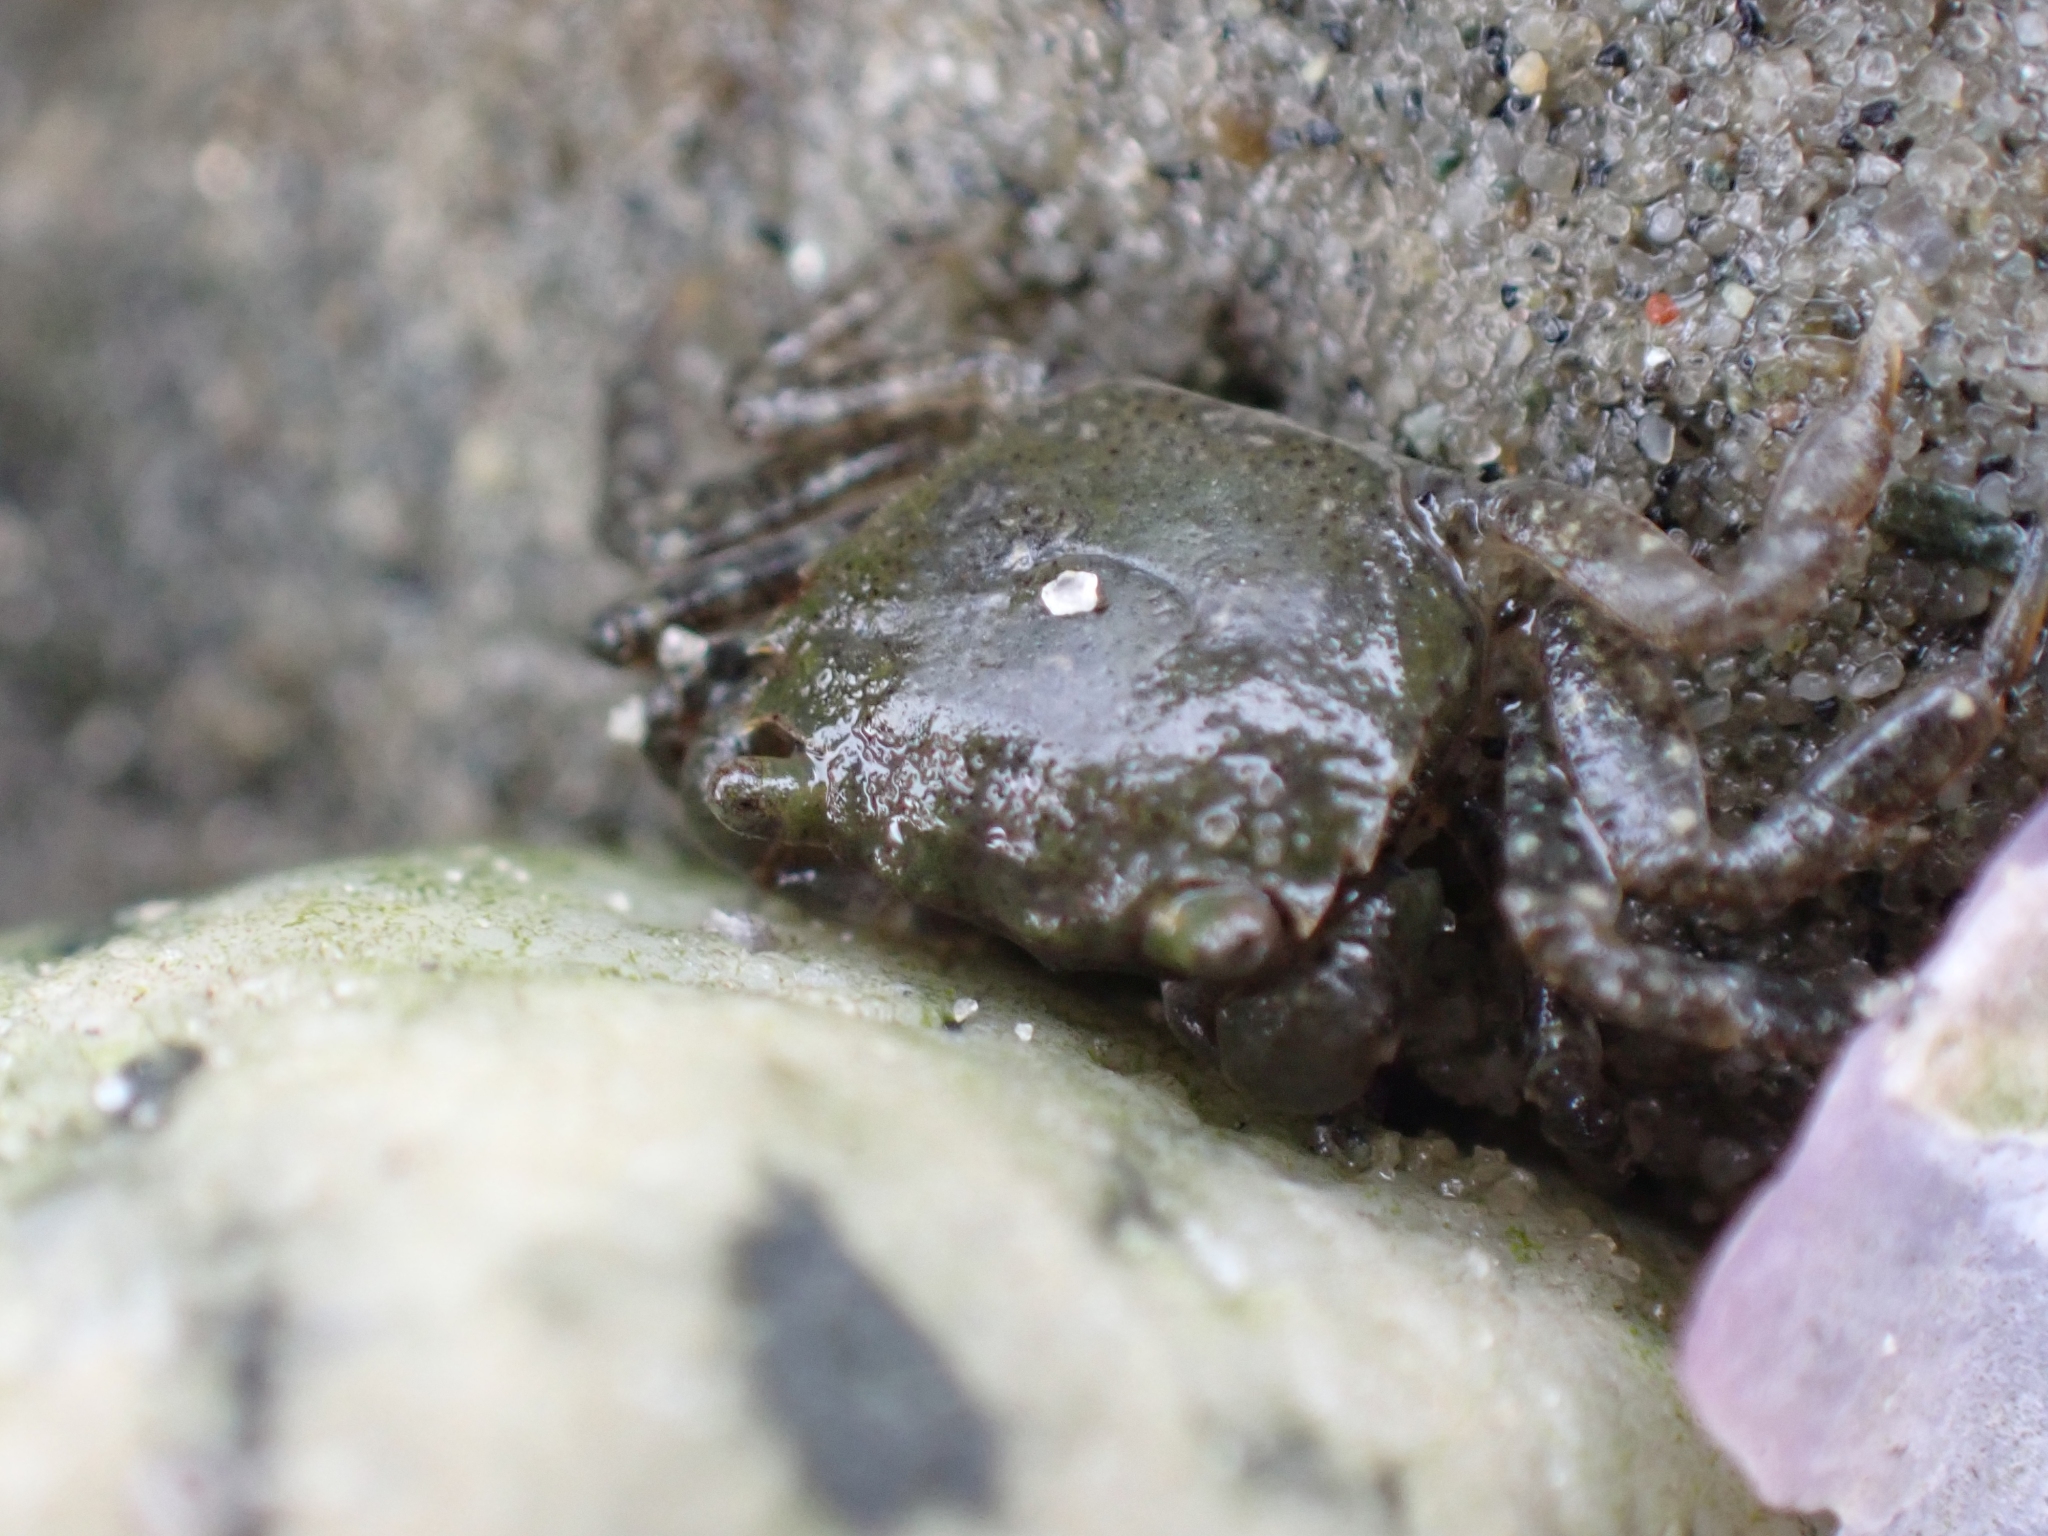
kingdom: Animalia
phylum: Arthropoda
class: Malacostraca
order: Decapoda
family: Varunidae
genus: Hemigrapsus
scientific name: Hemigrapsus oregonensis
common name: Yellow shore crab
